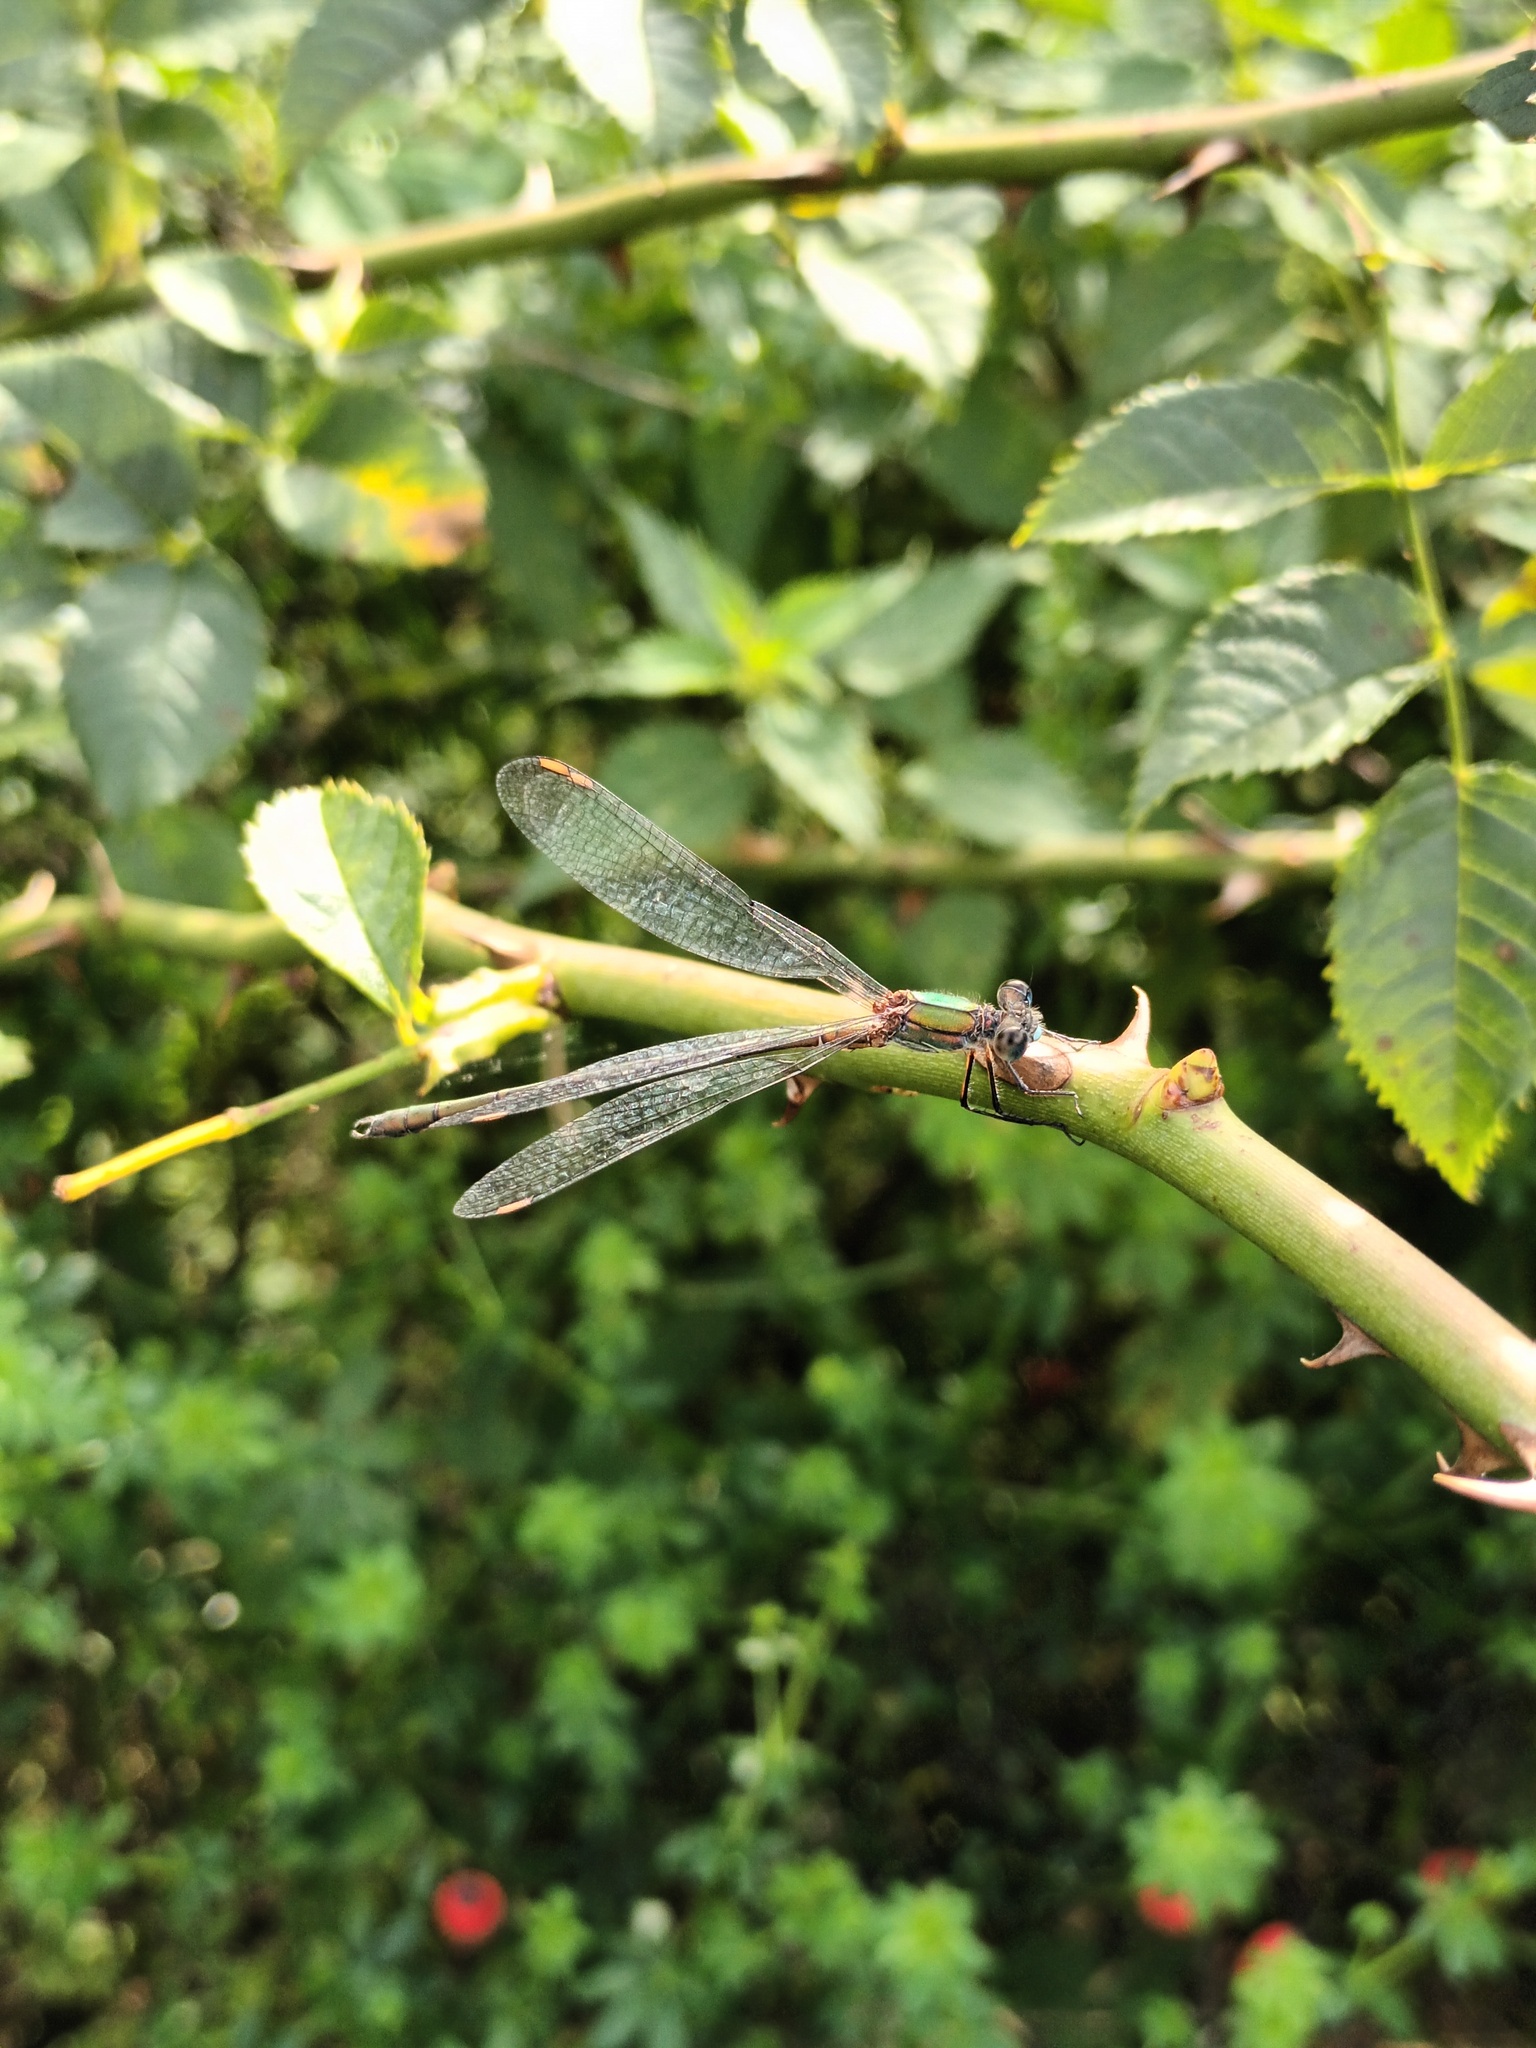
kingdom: Animalia
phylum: Arthropoda
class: Insecta
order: Odonata
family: Lestidae
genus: Chalcolestes
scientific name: Chalcolestes viridis
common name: Green emerald damselfly
